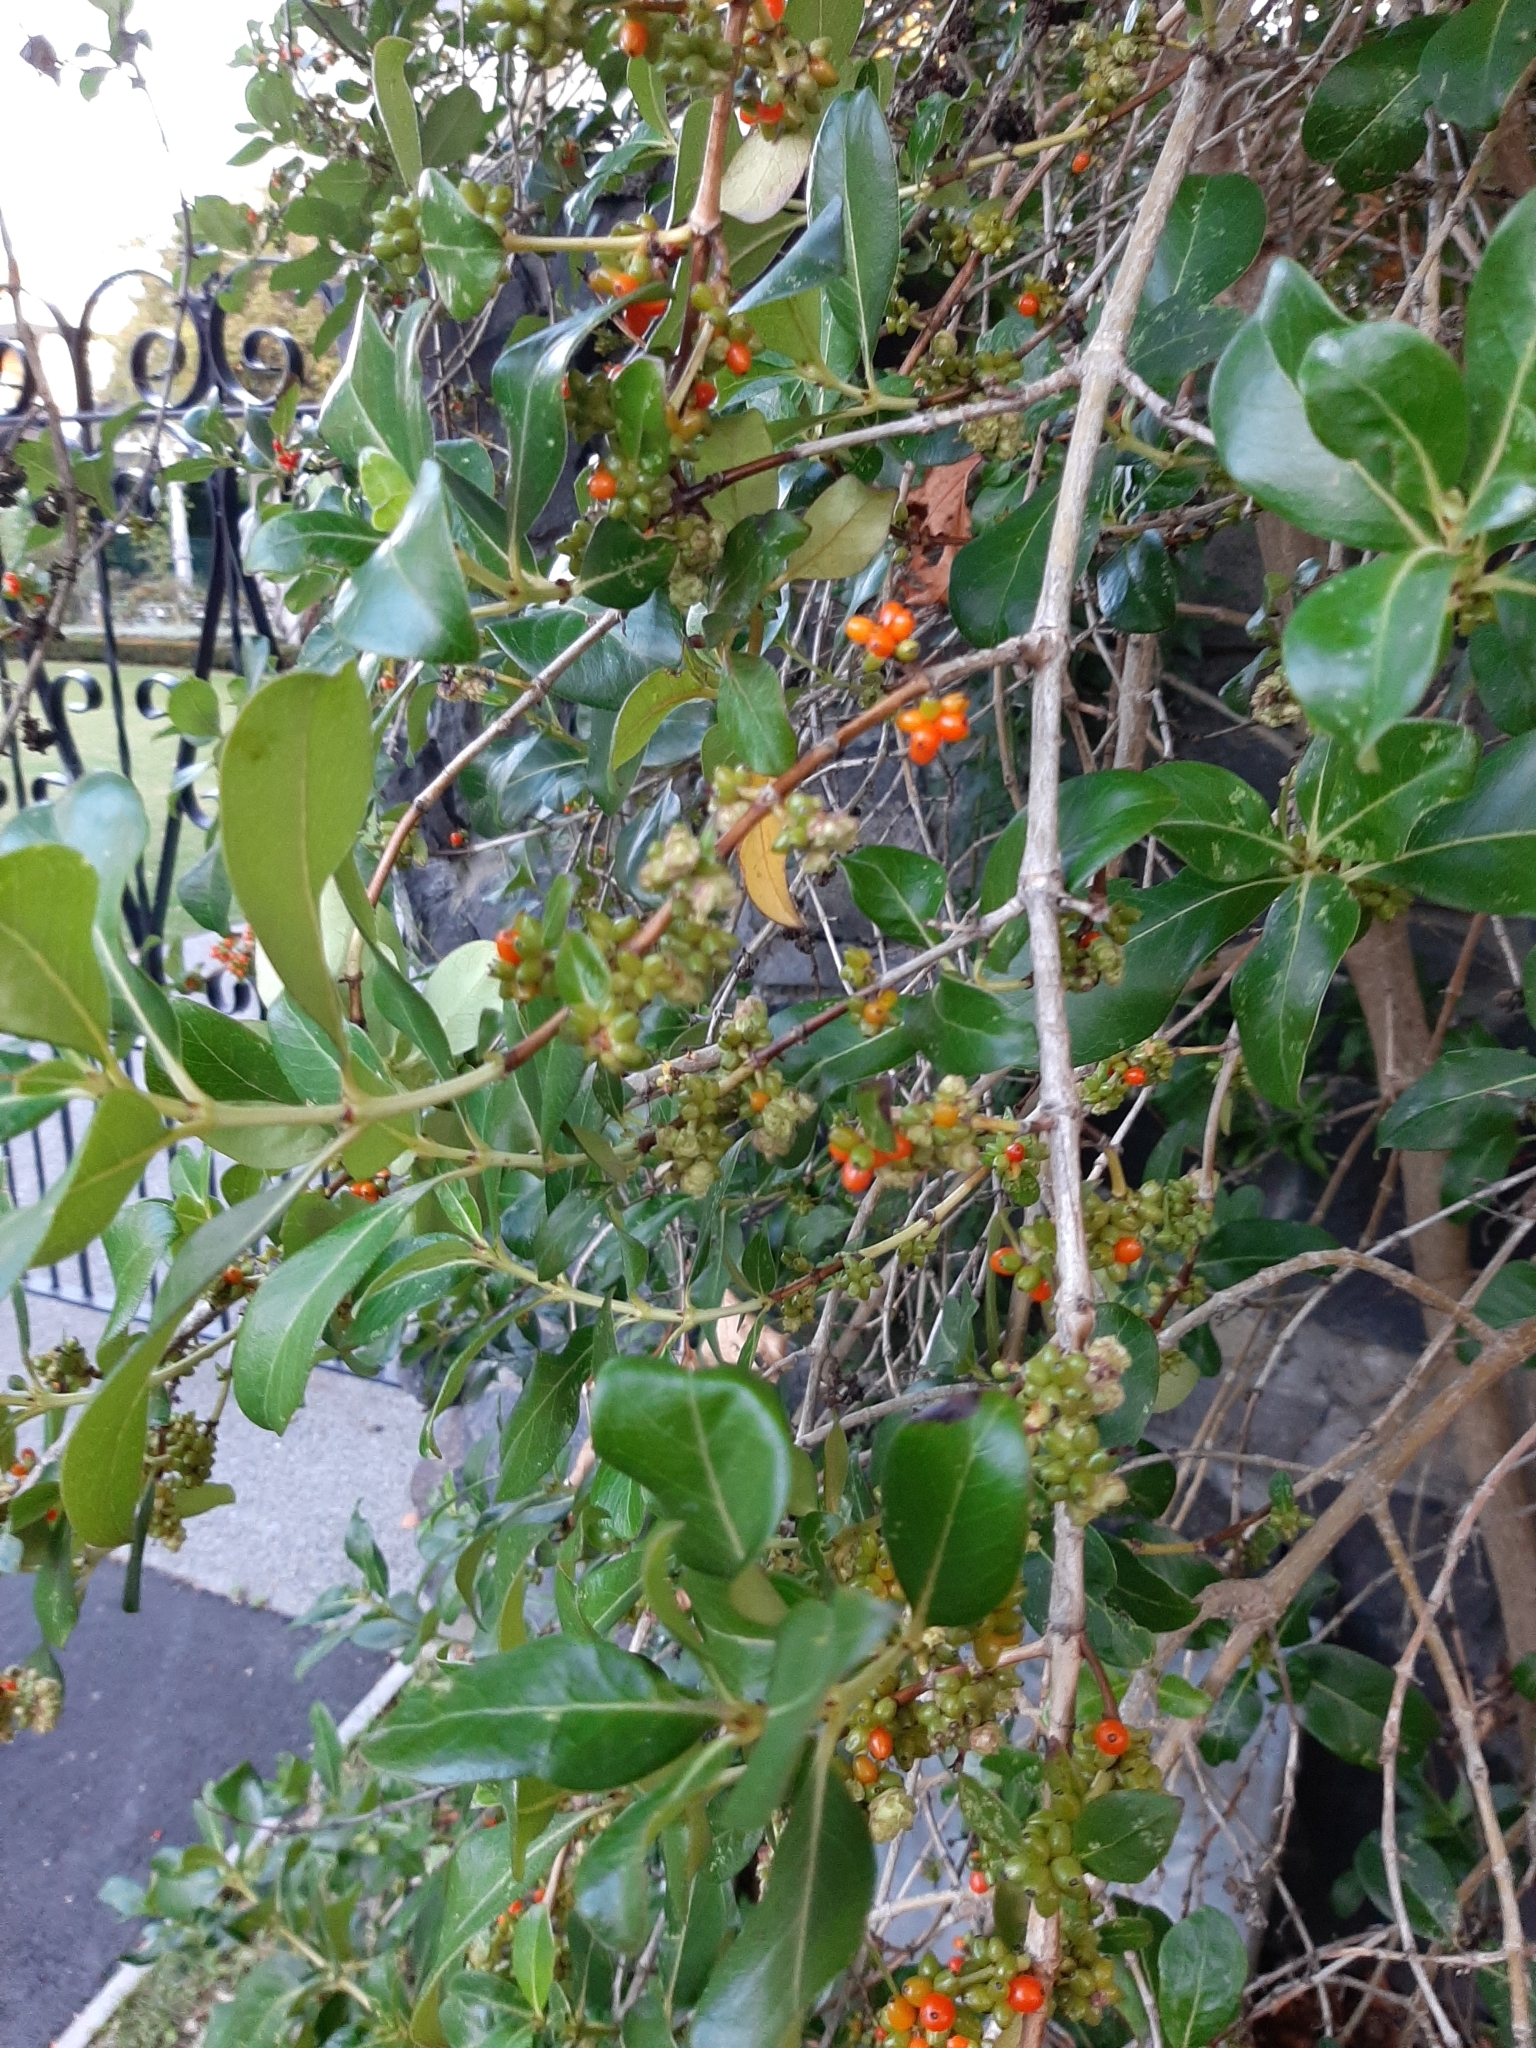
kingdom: Plantae
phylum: Tracheophyta
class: Magnoliopsida
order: Gentianales
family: Rubiaceae
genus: Coprosma
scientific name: Coprosma robusta
